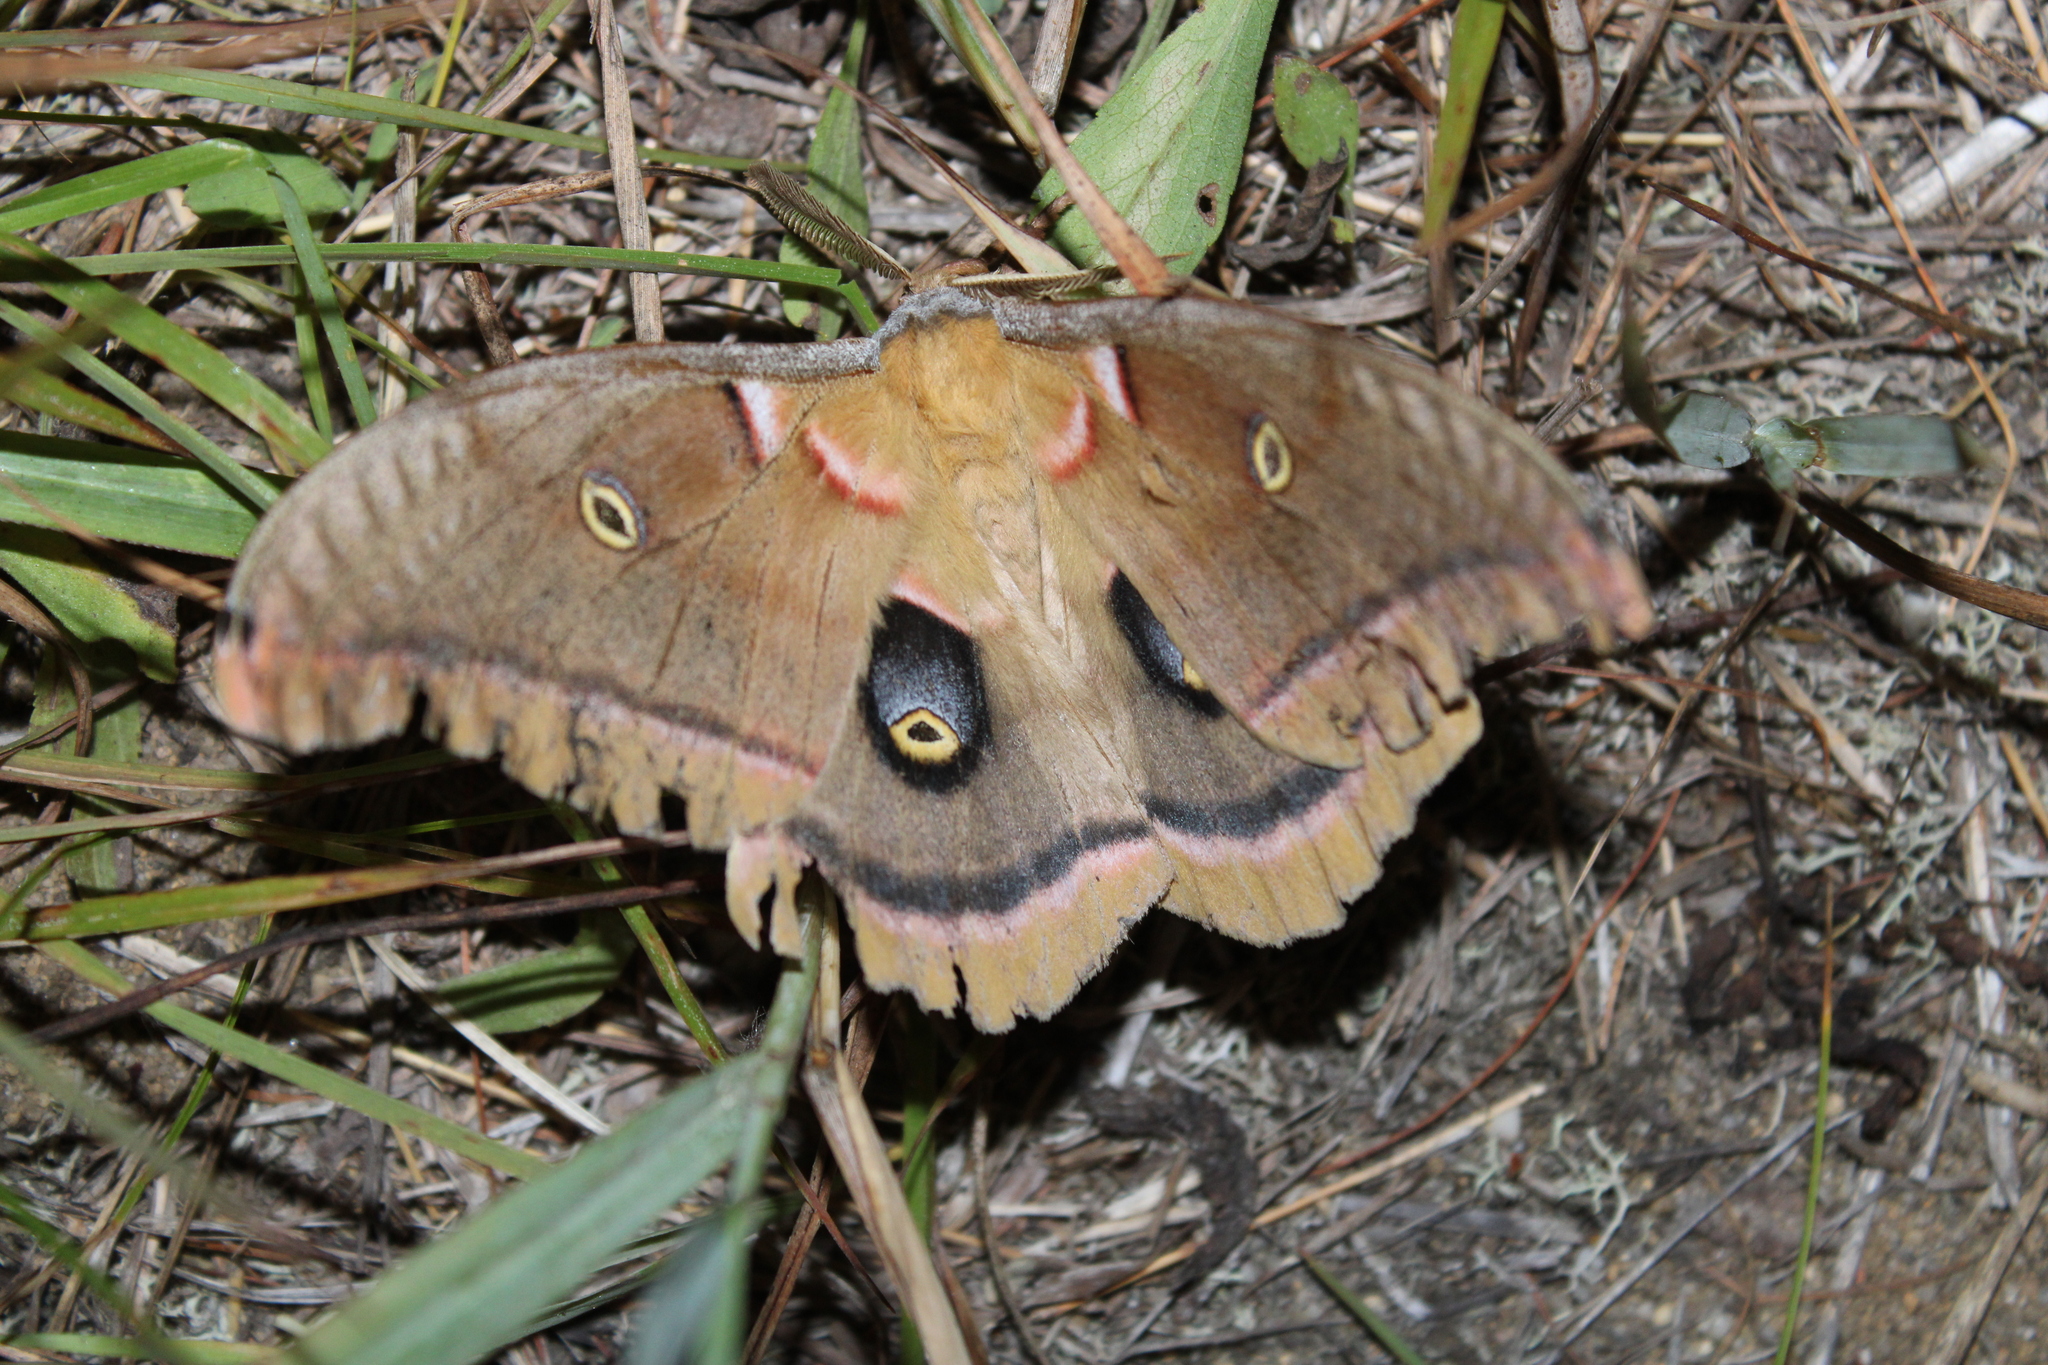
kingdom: Animalia
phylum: Arthropoda
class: Insecta
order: Lepidoptera
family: Saturniidae
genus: Antheraea
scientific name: Antheraea polyphemus
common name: Polyphemus moth
